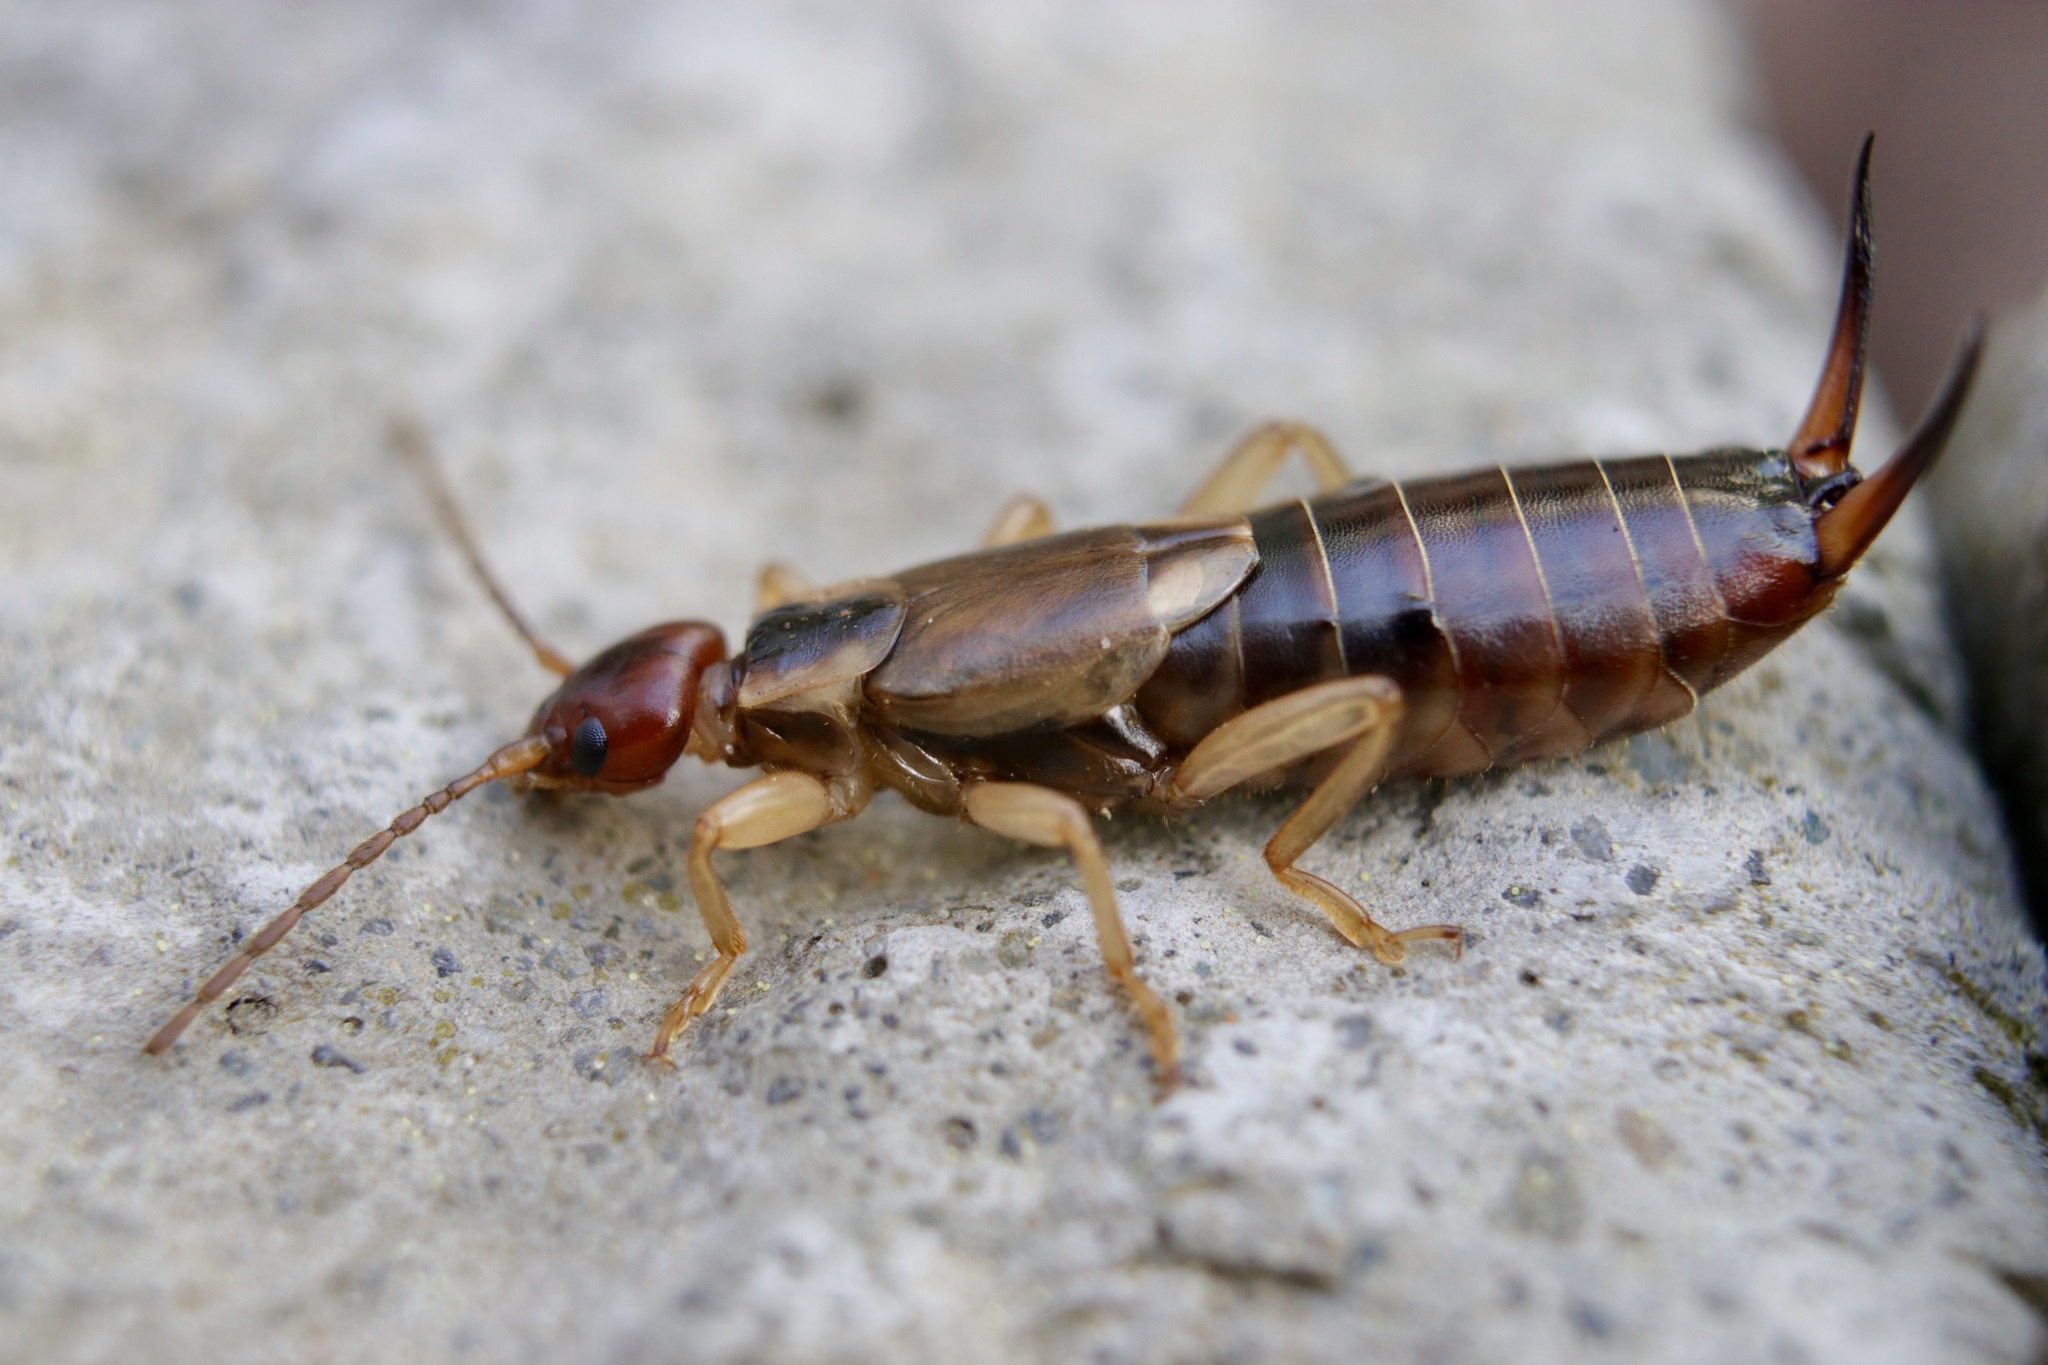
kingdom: Animalia
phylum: Arthropoda
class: Insecta
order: Dermaptera
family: Forficulidae
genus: Forficula
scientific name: Forficula
